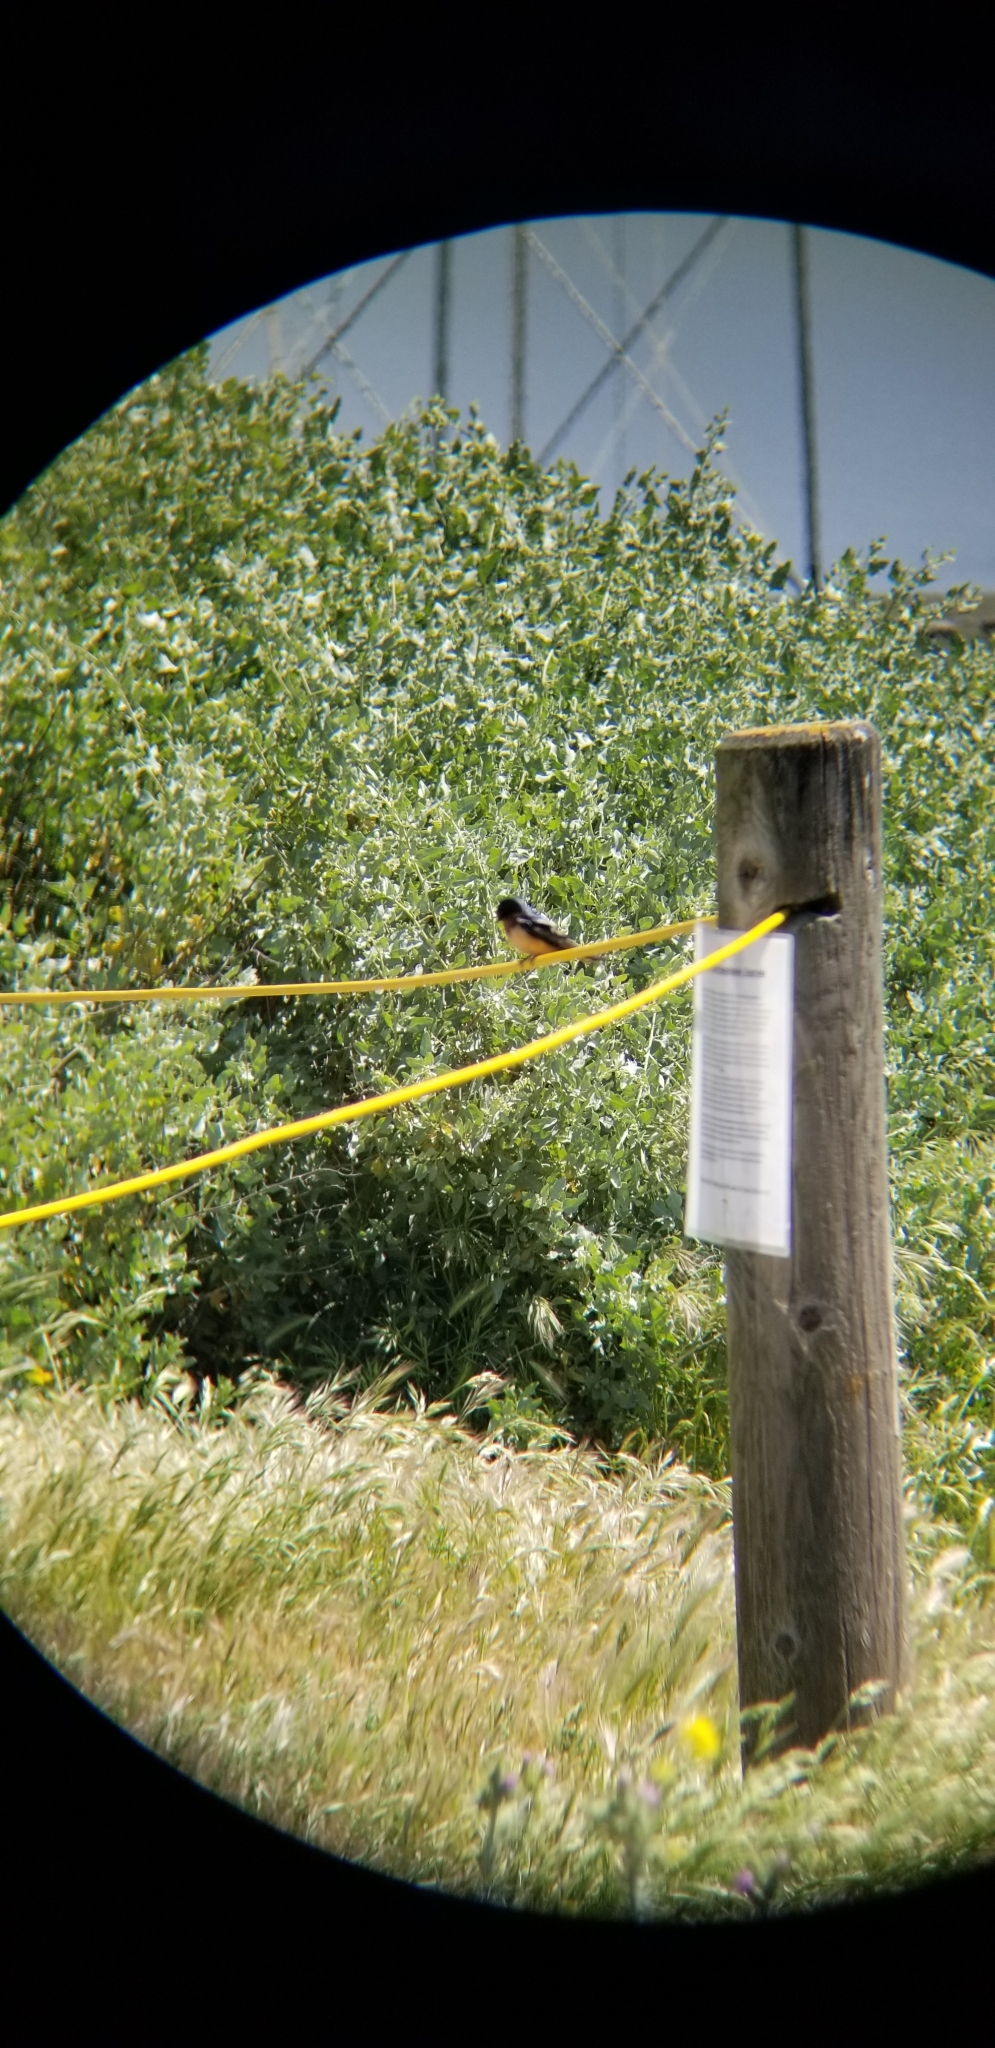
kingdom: Animalia
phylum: Chordata
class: Aves
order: Passeriformes
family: Hirundinidae
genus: Hirundo
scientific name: Hirundo rustica
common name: Barn swallow
